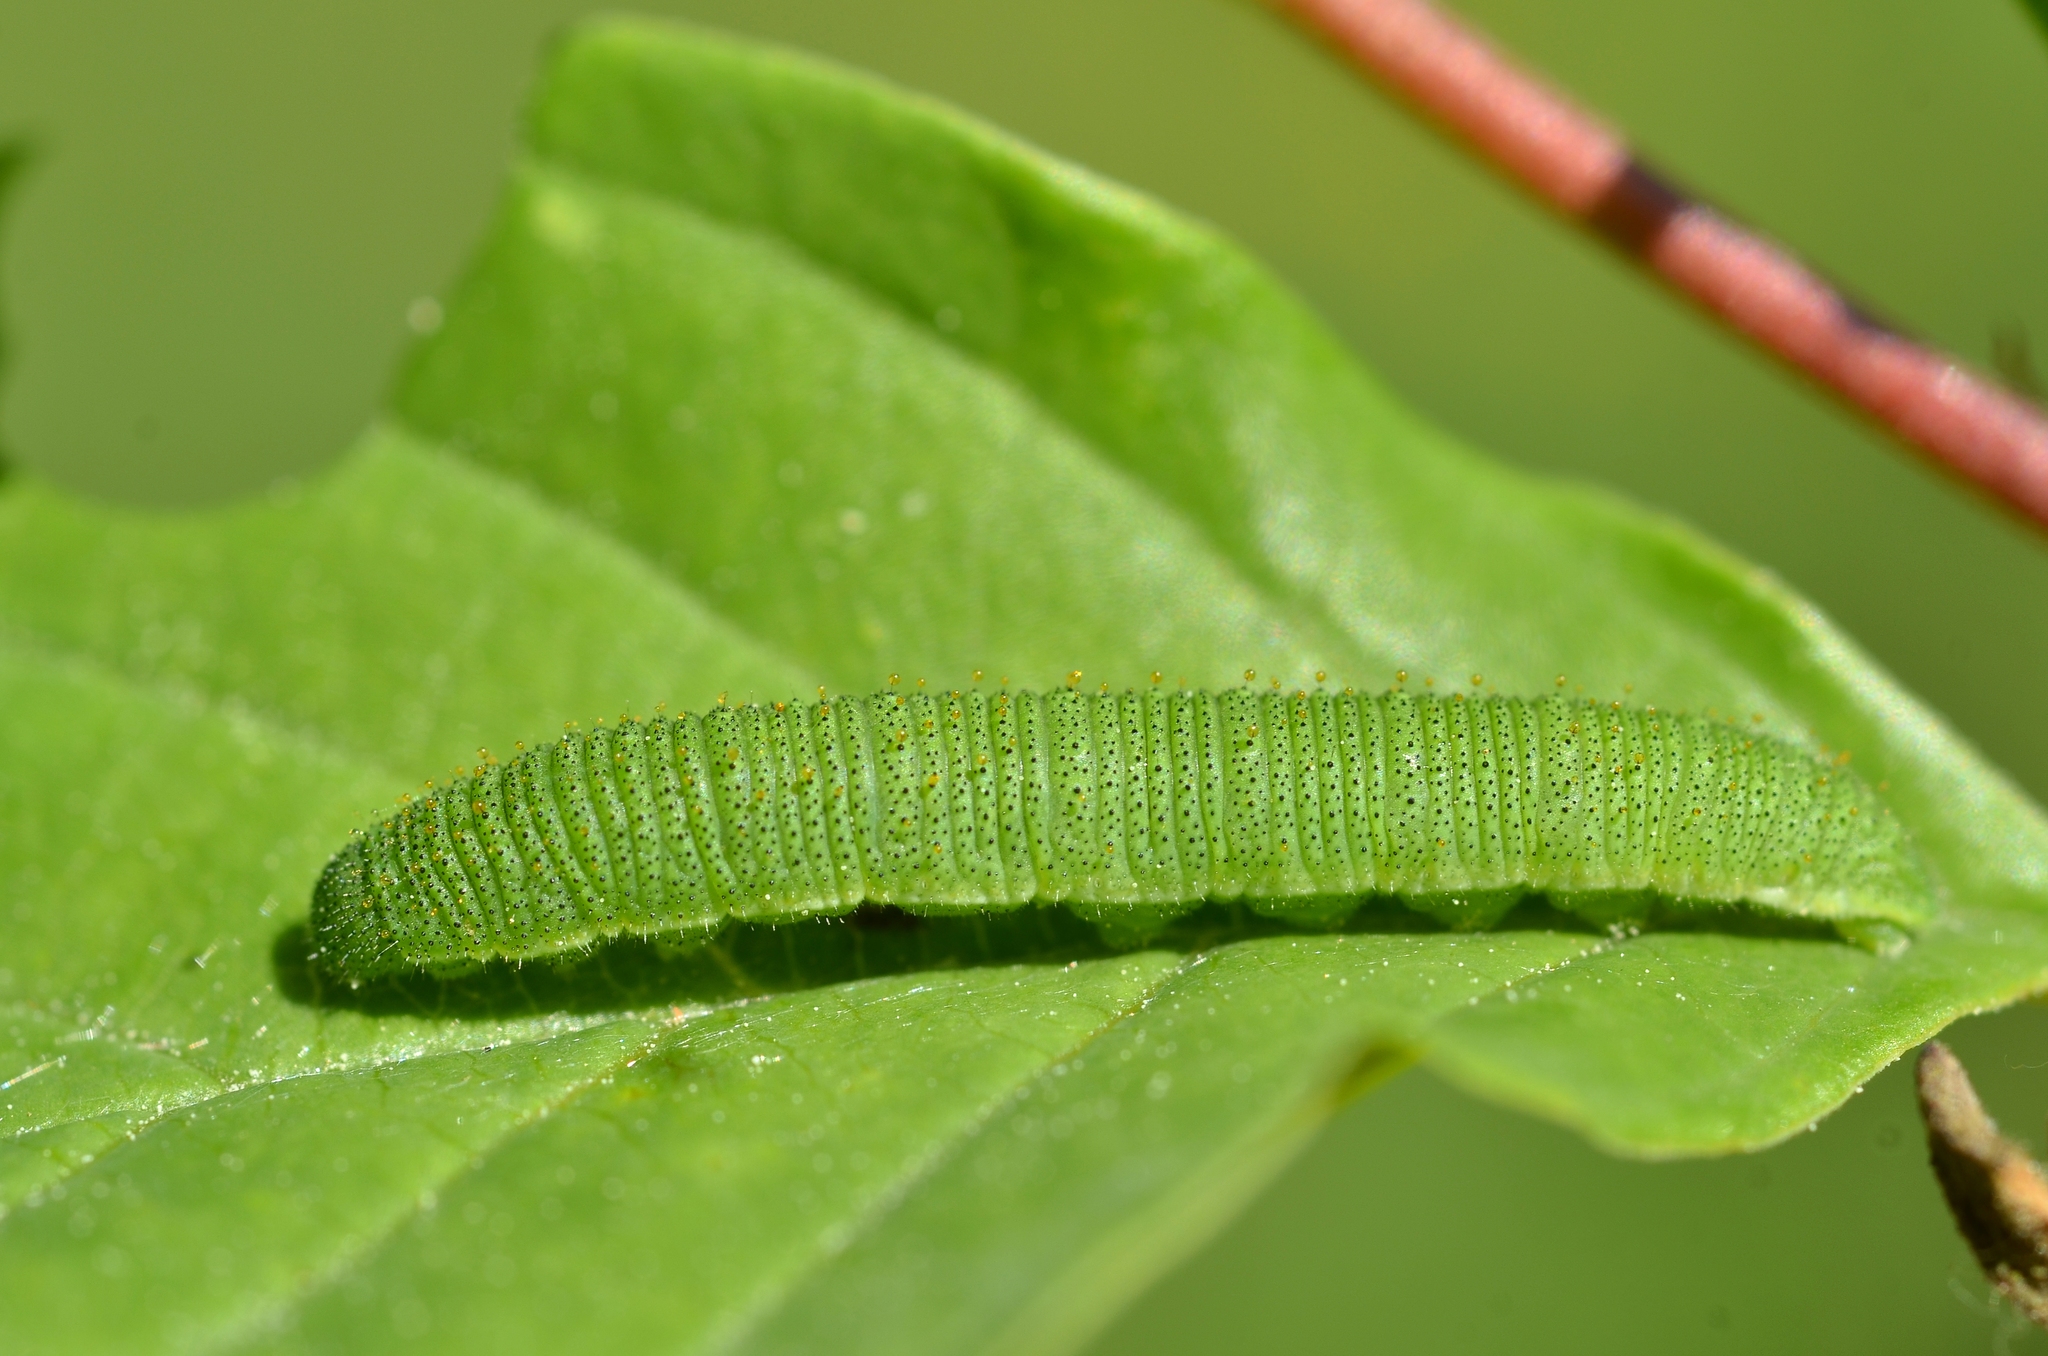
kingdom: Animalia
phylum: Arthropoda
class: Insecta
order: Lepidoptera
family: Pieridae
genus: Gonepteryx
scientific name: Gonepteryx rhamni
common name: Brimstone
